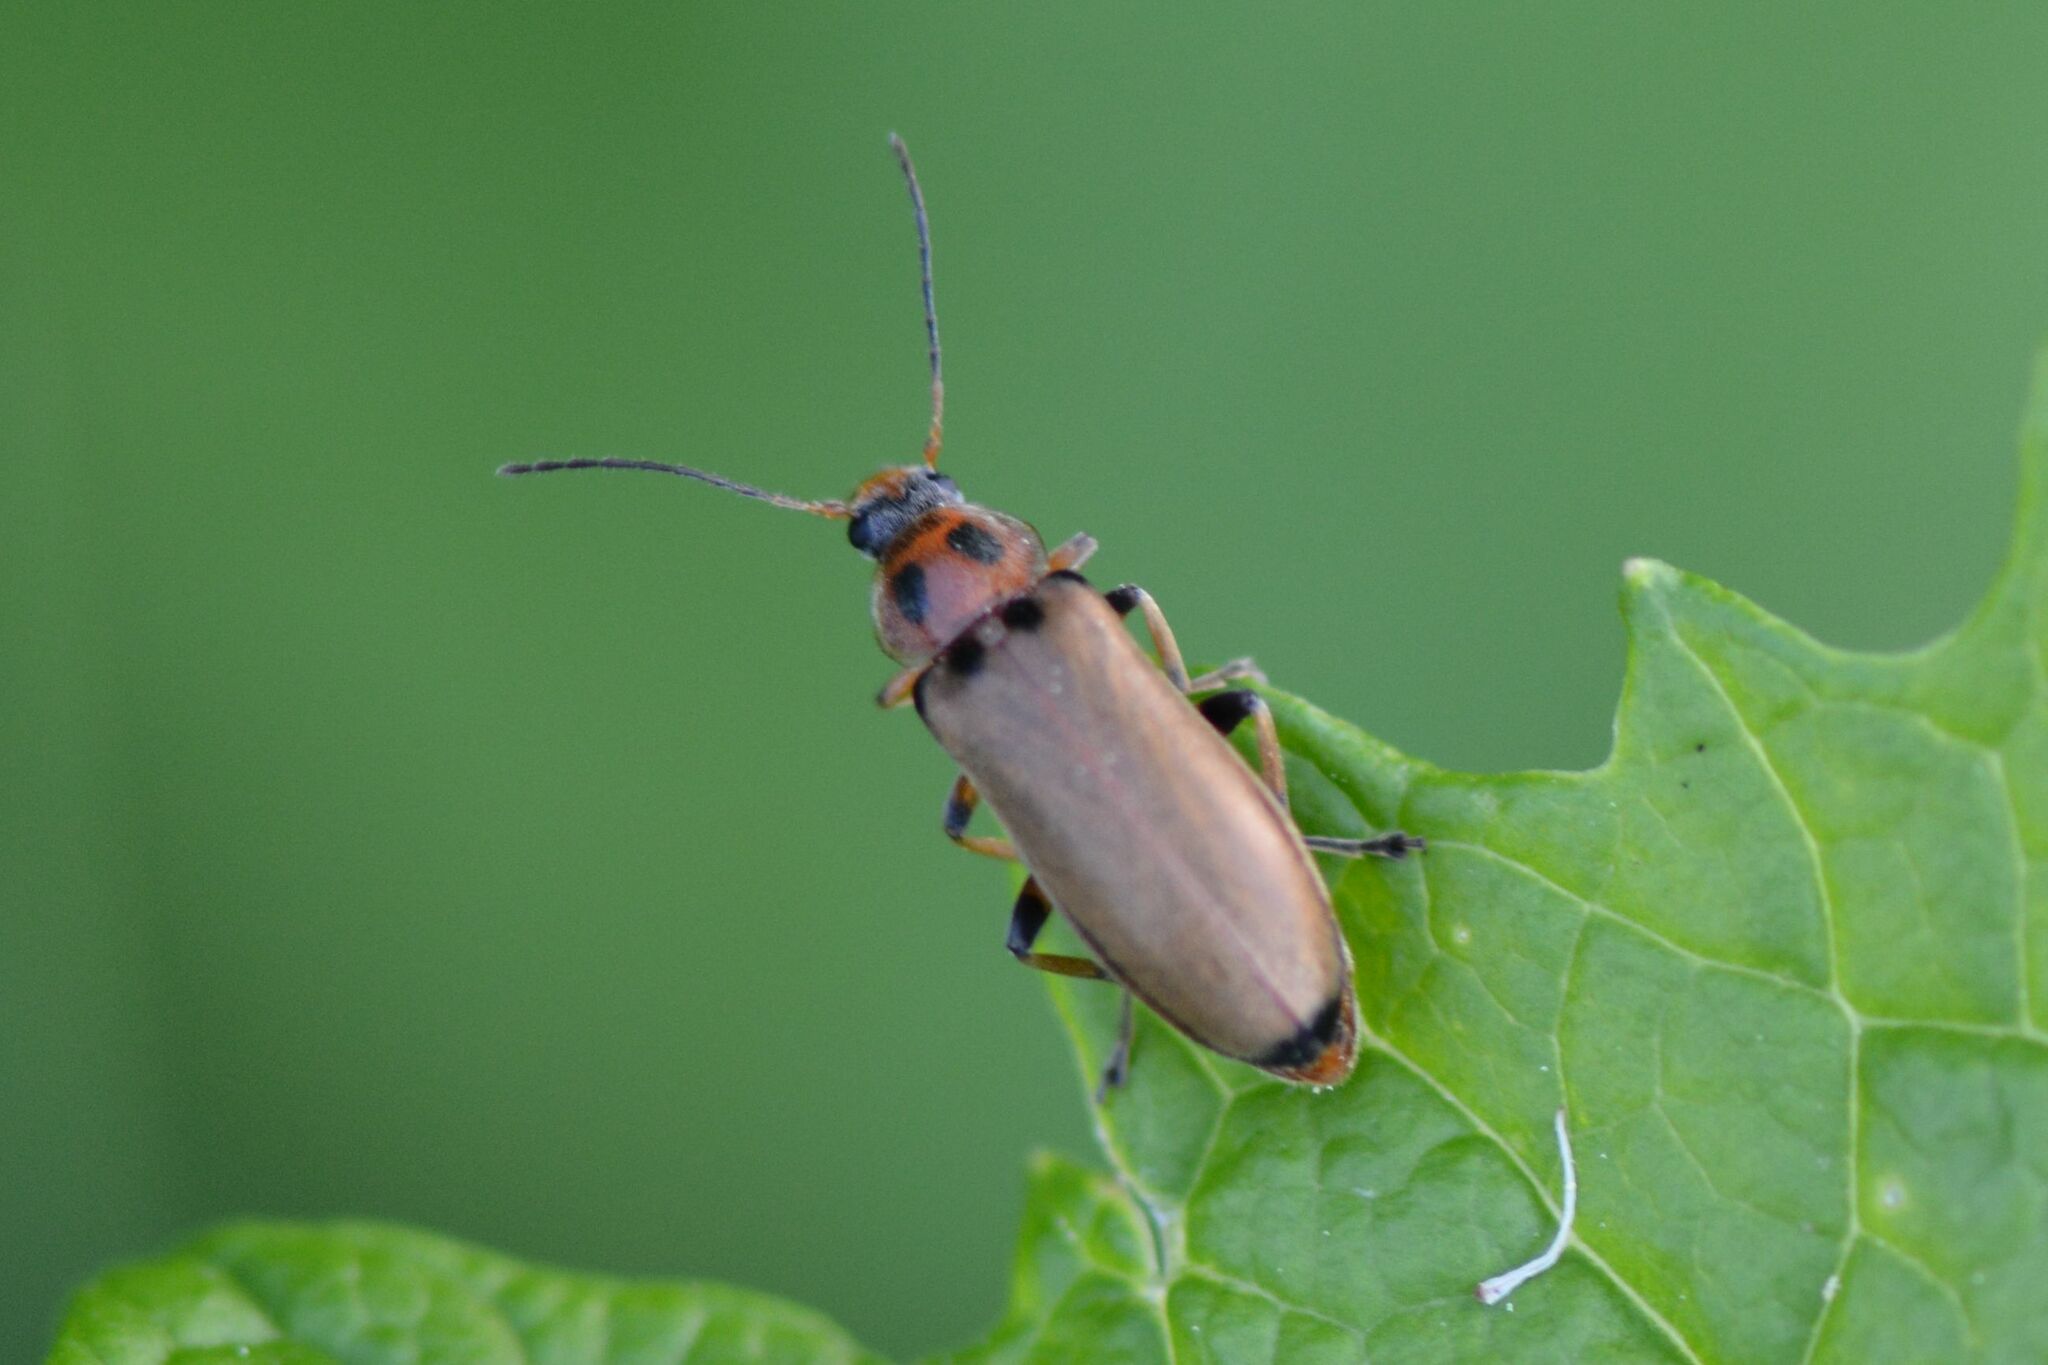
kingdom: Animalia
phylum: Arthropoda
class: Insecta
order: Coleoptera
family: Melandryidae
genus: Osphya
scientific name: Osphya bipunctata
